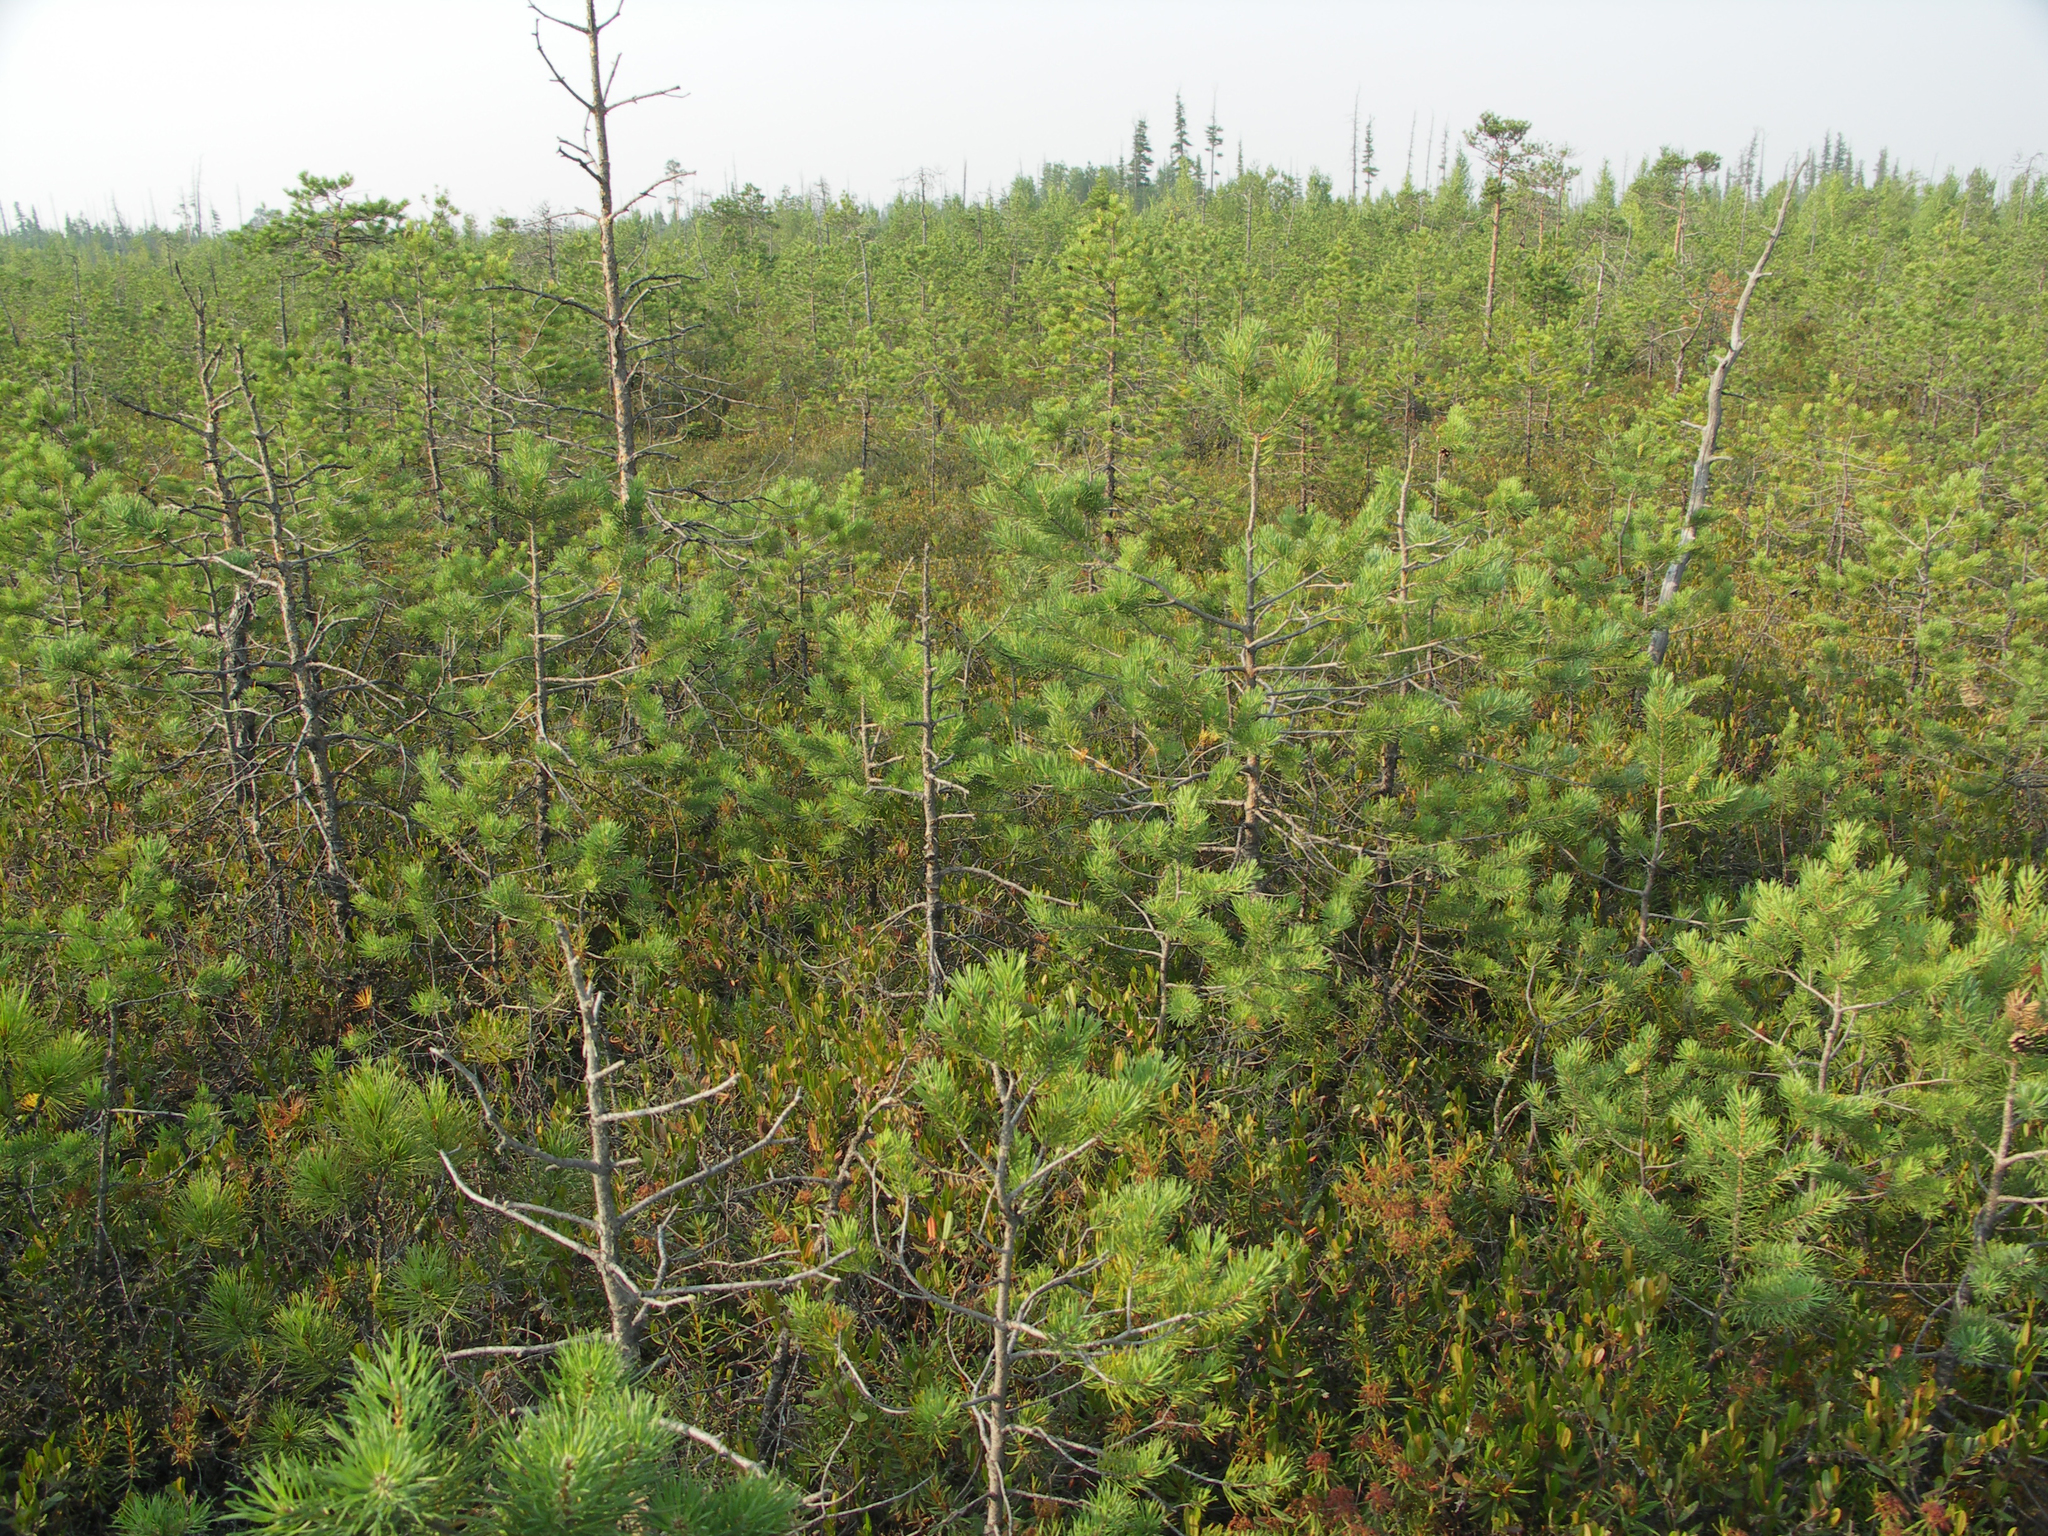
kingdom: Plantae
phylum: Tracheophyta
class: Pinopsida
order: Pinales
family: Pinaceae
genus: Pinus
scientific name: Pinus sylvestris
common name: Scots pine
